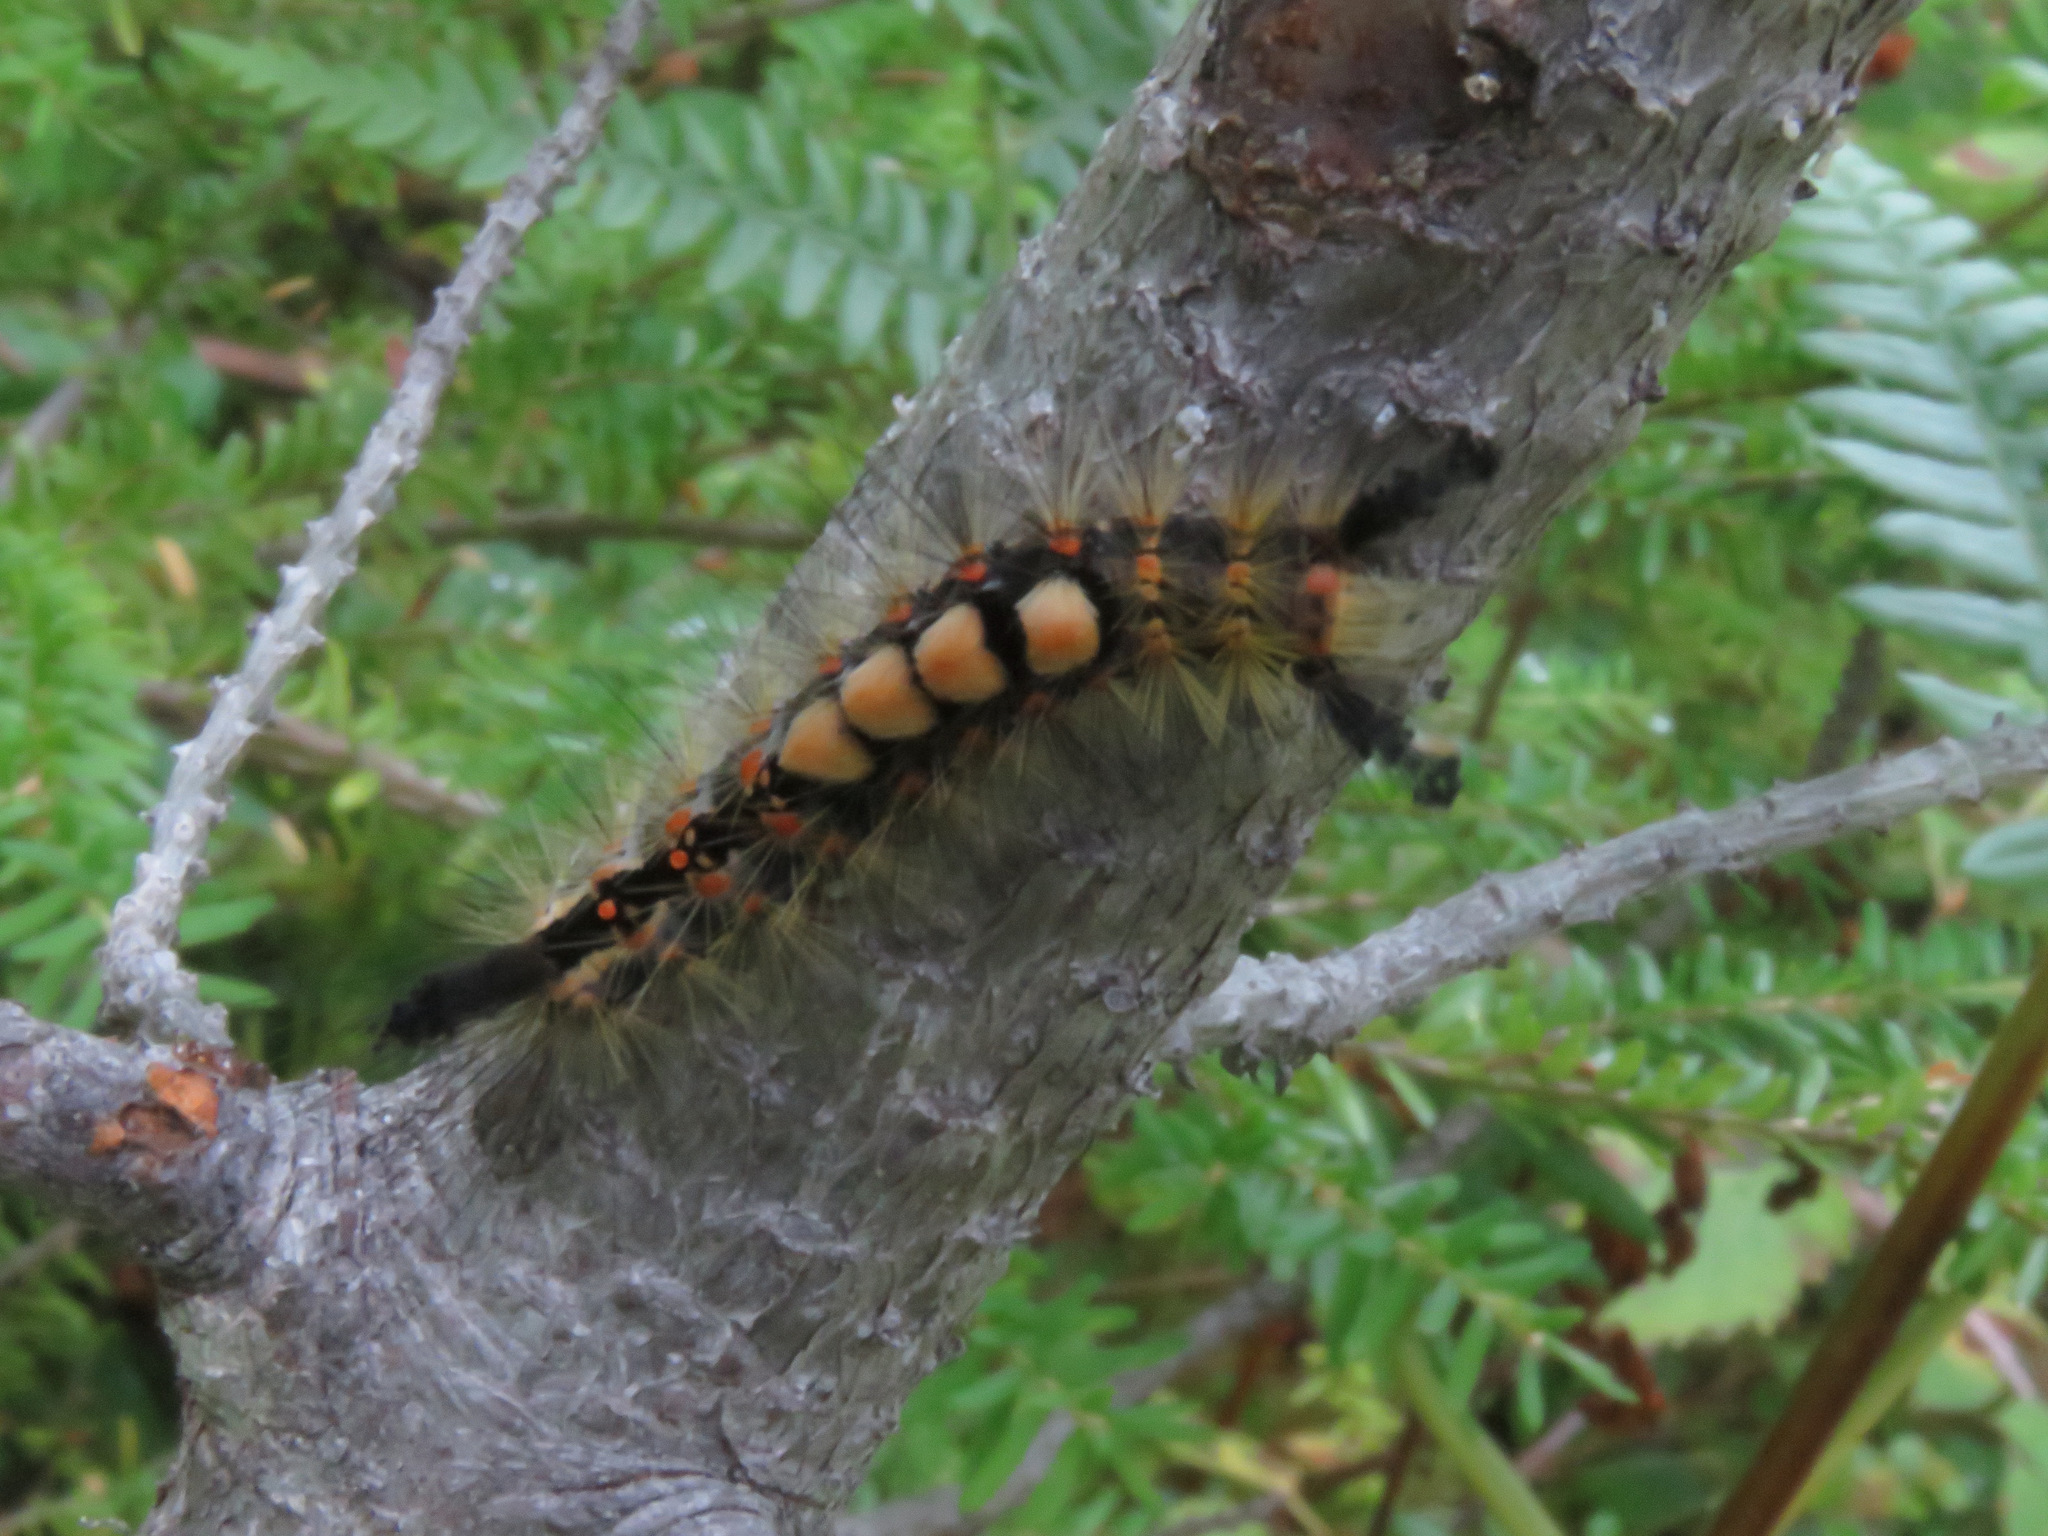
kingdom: Animalia
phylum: Arthropoda
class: Insecta
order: Lepidoptera
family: Erebidae
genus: Orgyia
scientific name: Orgyia antiqua
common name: Vapourer
